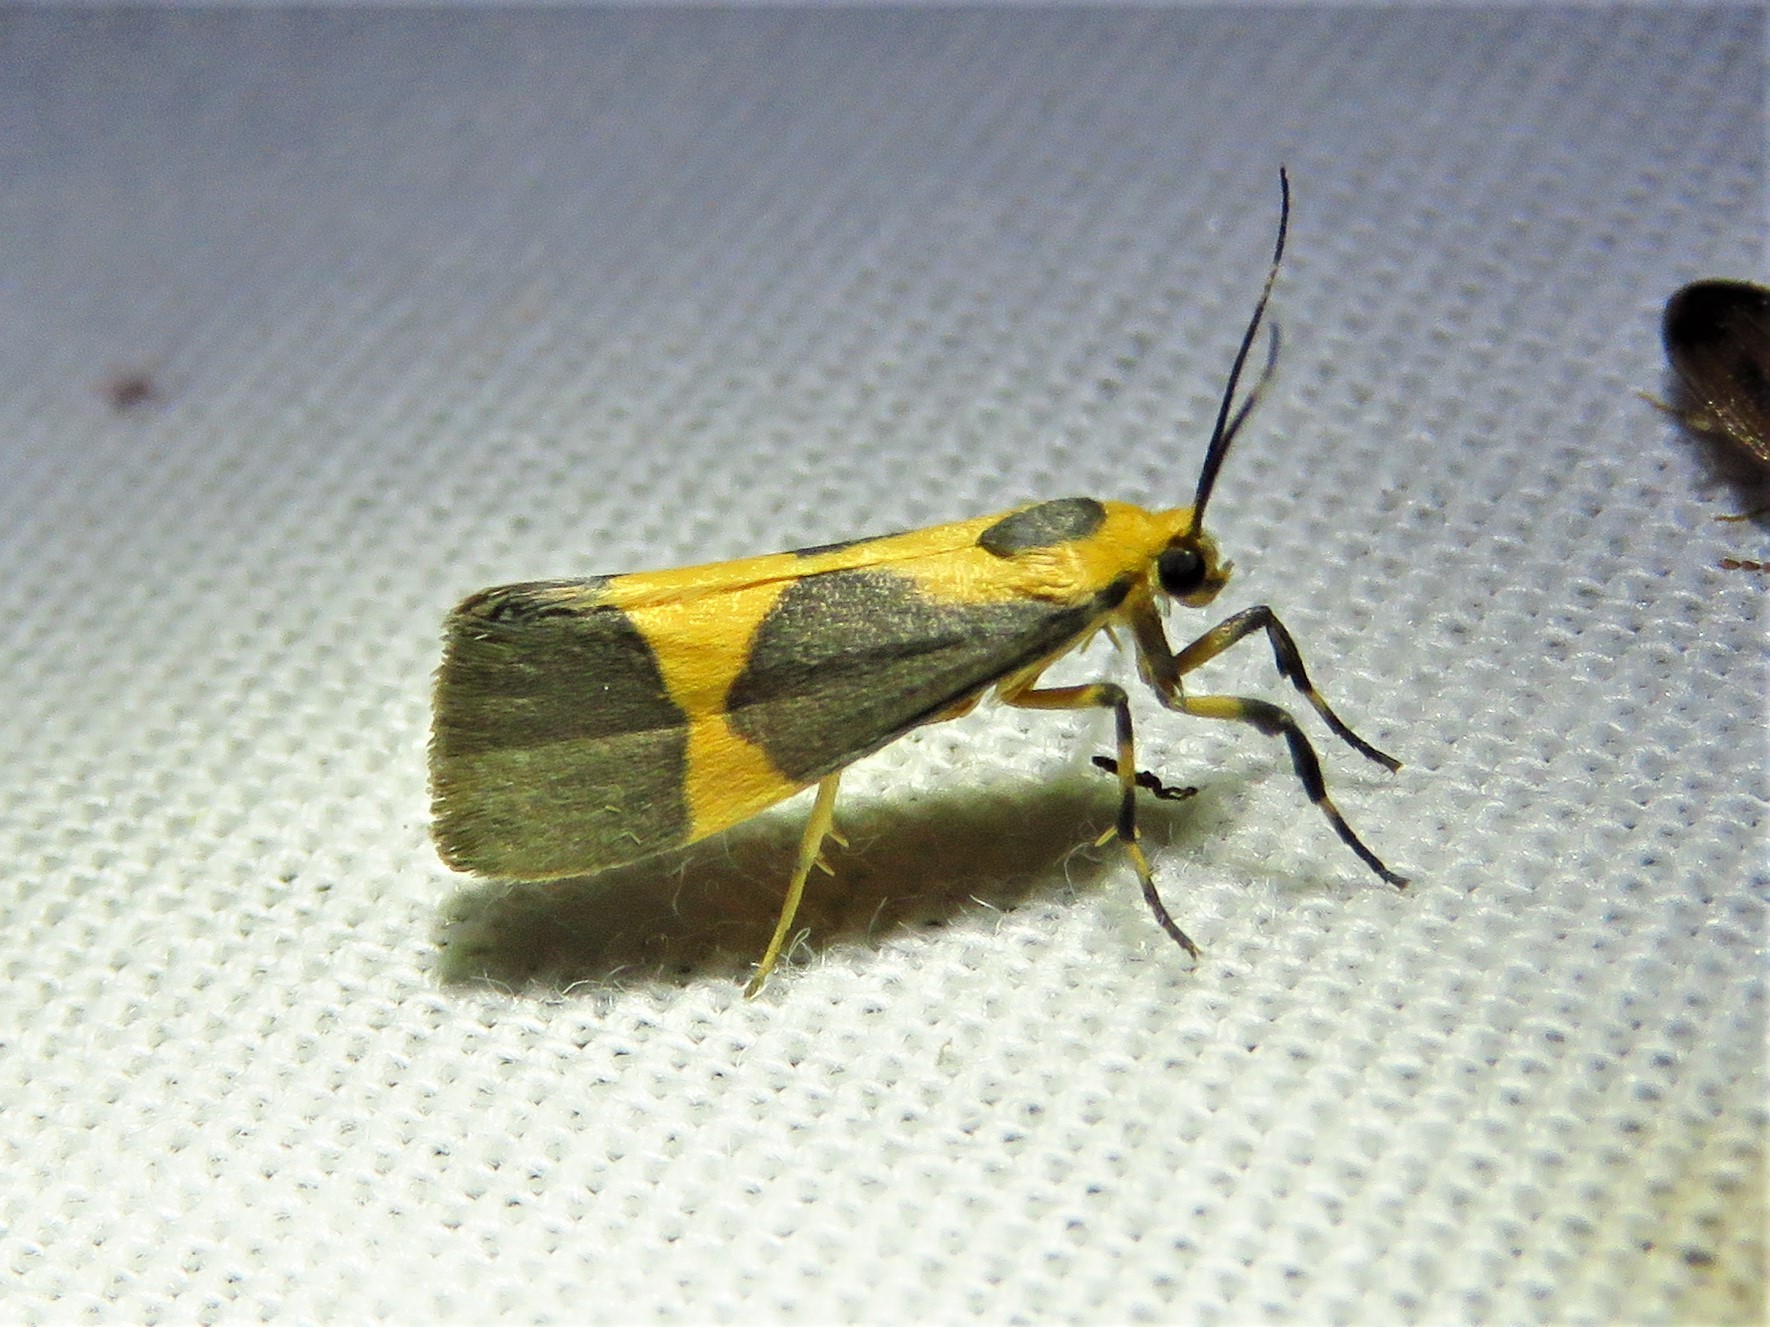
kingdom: Animalia
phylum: Arthropoda
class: Insecta
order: Lepidoptera
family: Erebidae
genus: Cisthene
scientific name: Cisthene unifascia
